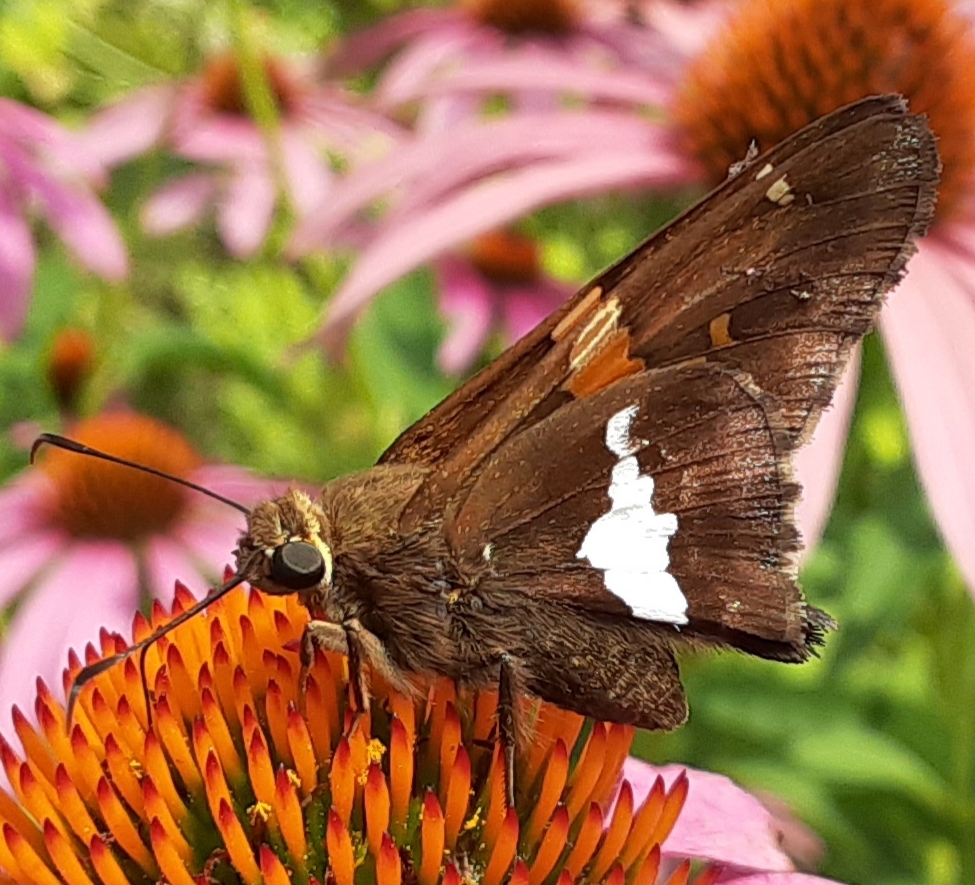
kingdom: Animalia
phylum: Arthropoda
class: Insecta
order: Lepidoptera
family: Hesperiidae
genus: Epargyreus
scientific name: Epargyreus clarus
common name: Silver-spotted skipper
